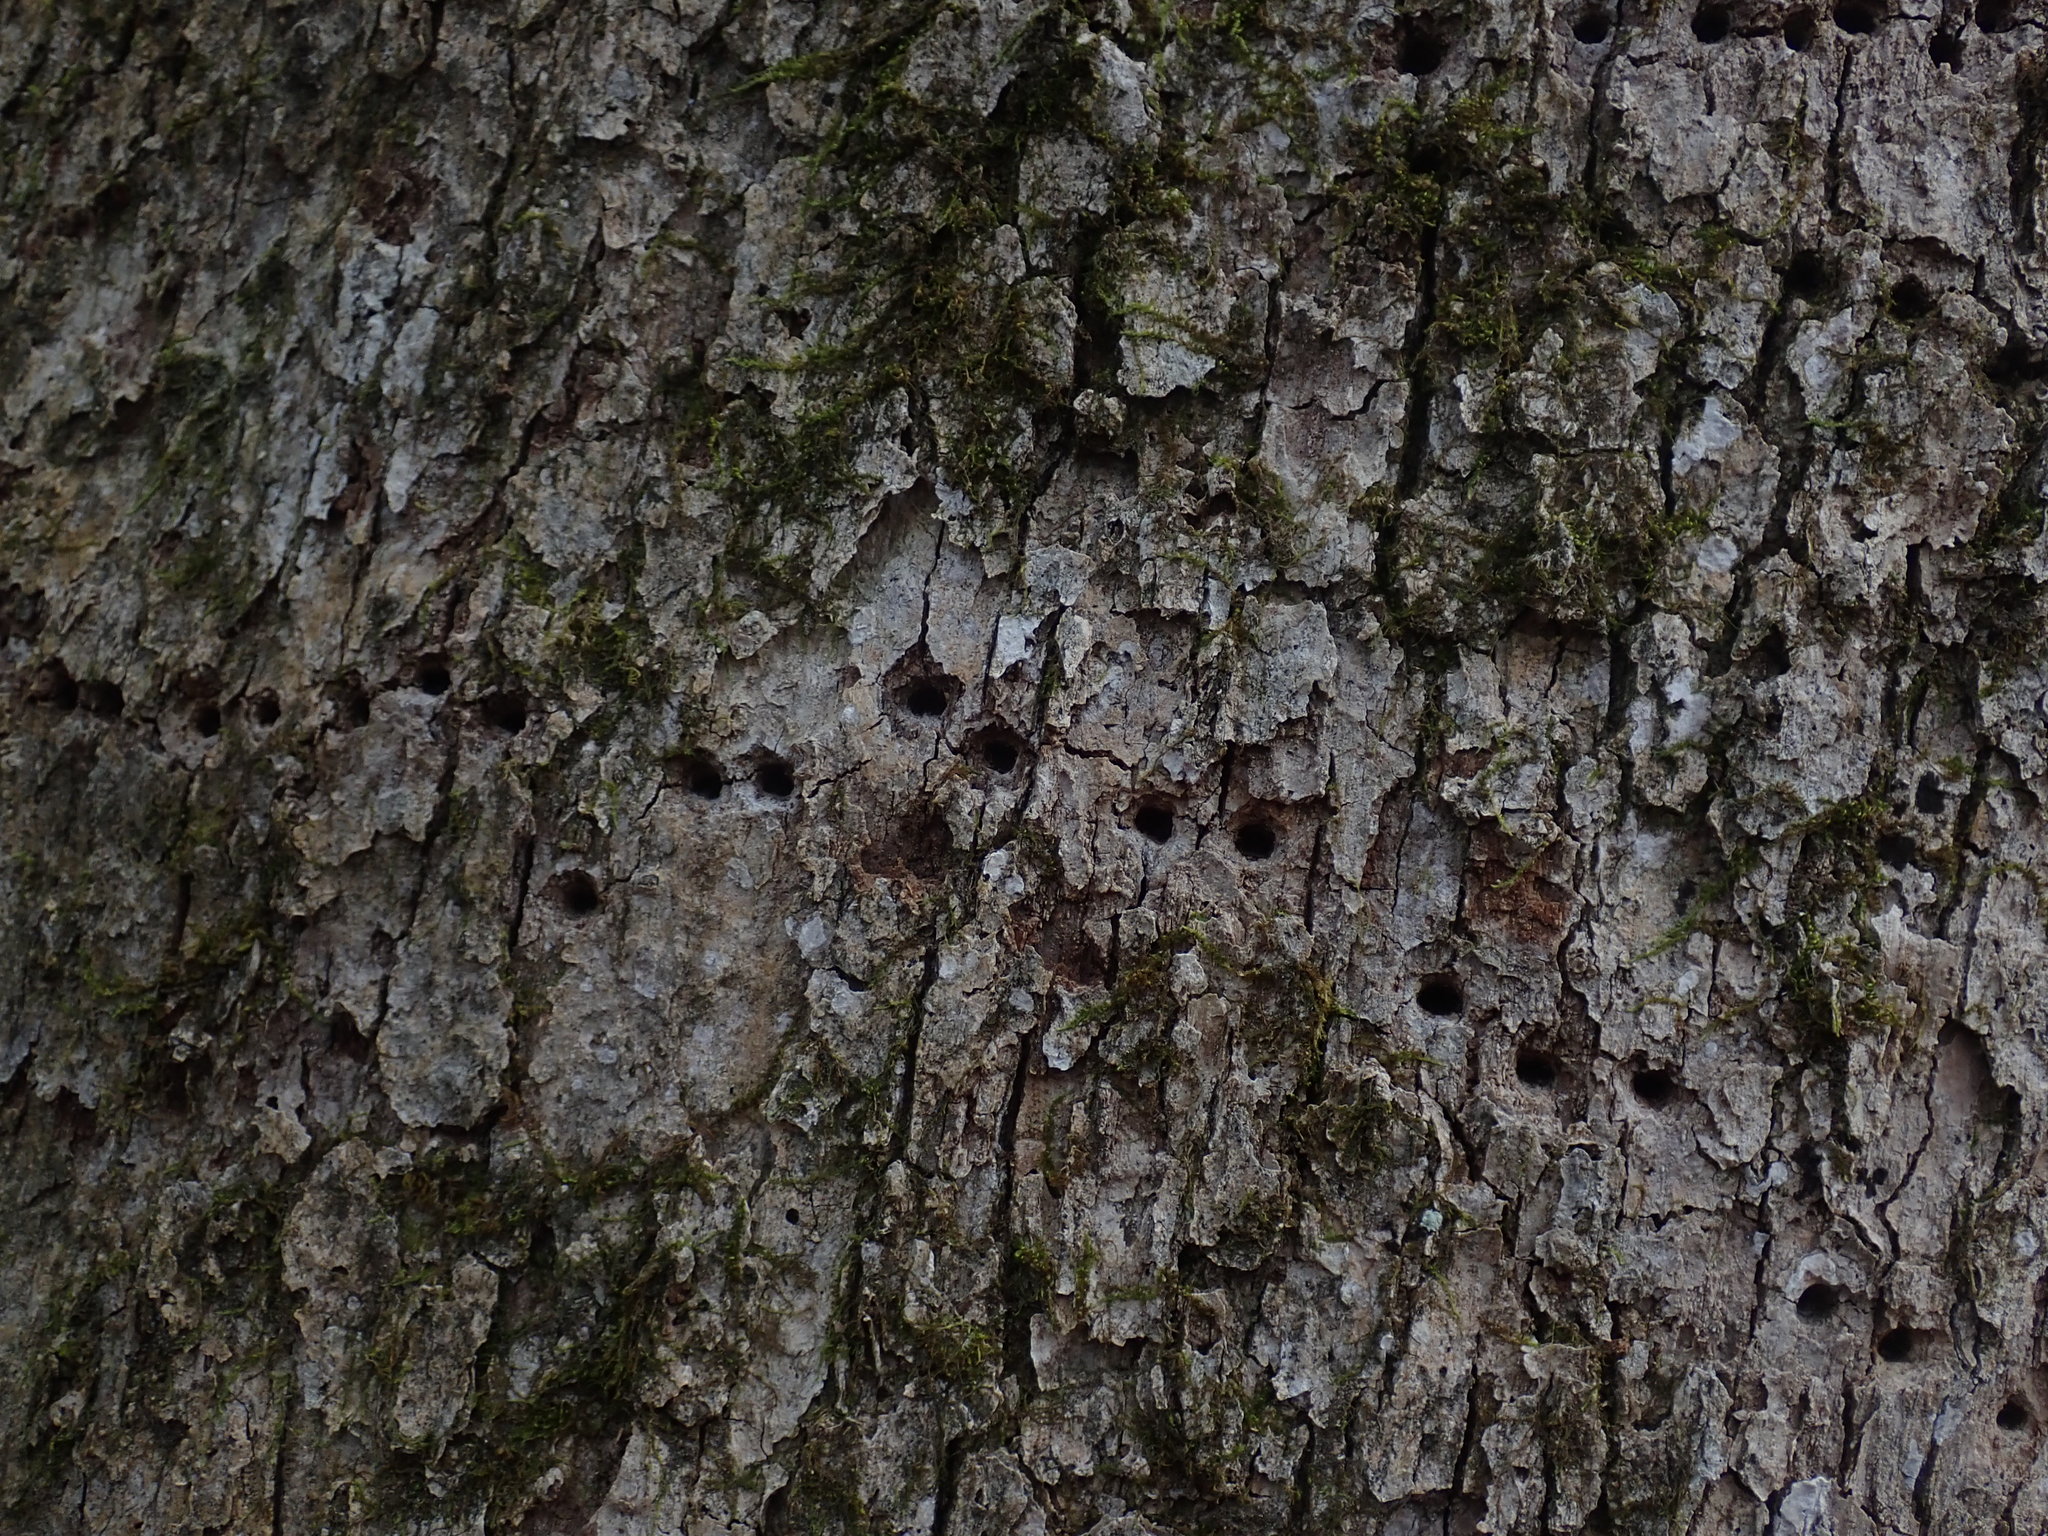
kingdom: Animalia
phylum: Chordata
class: Aves
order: Piciformes
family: Picidae
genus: Sphyrapicus
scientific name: Sphyrapicus varius
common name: Yellow-bellied sapsucker
